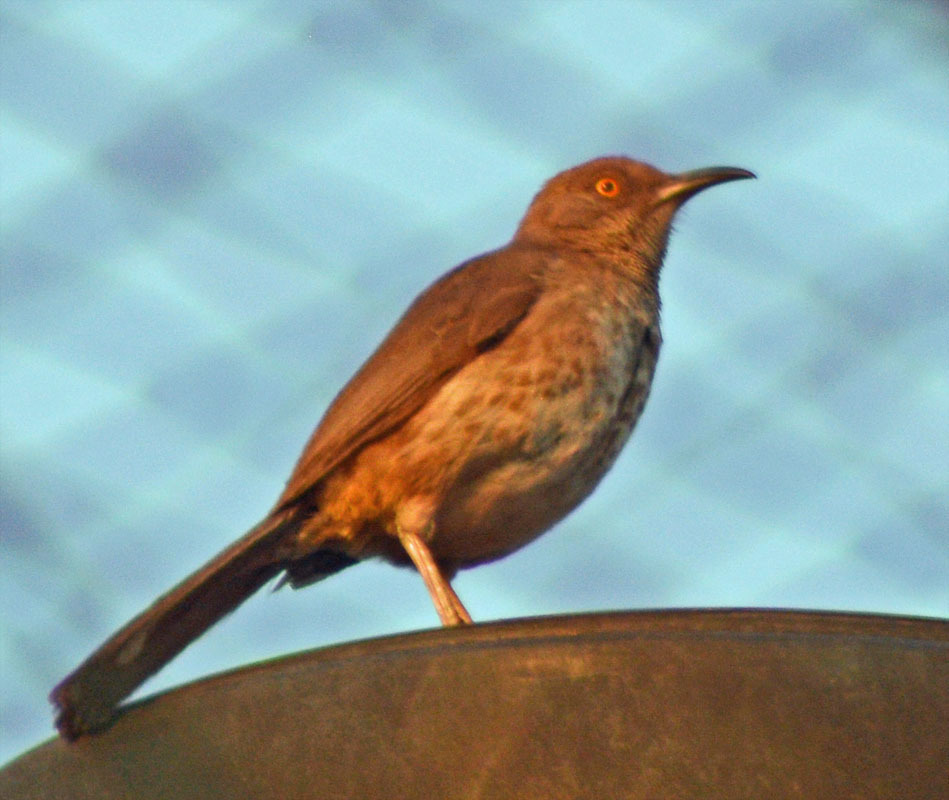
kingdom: Animalia
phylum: Chordata
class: Aves
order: Passeriformes
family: Mimidae
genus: Toxostoma
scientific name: Toxostoma curvirostre
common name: Curve-billed thrasher
